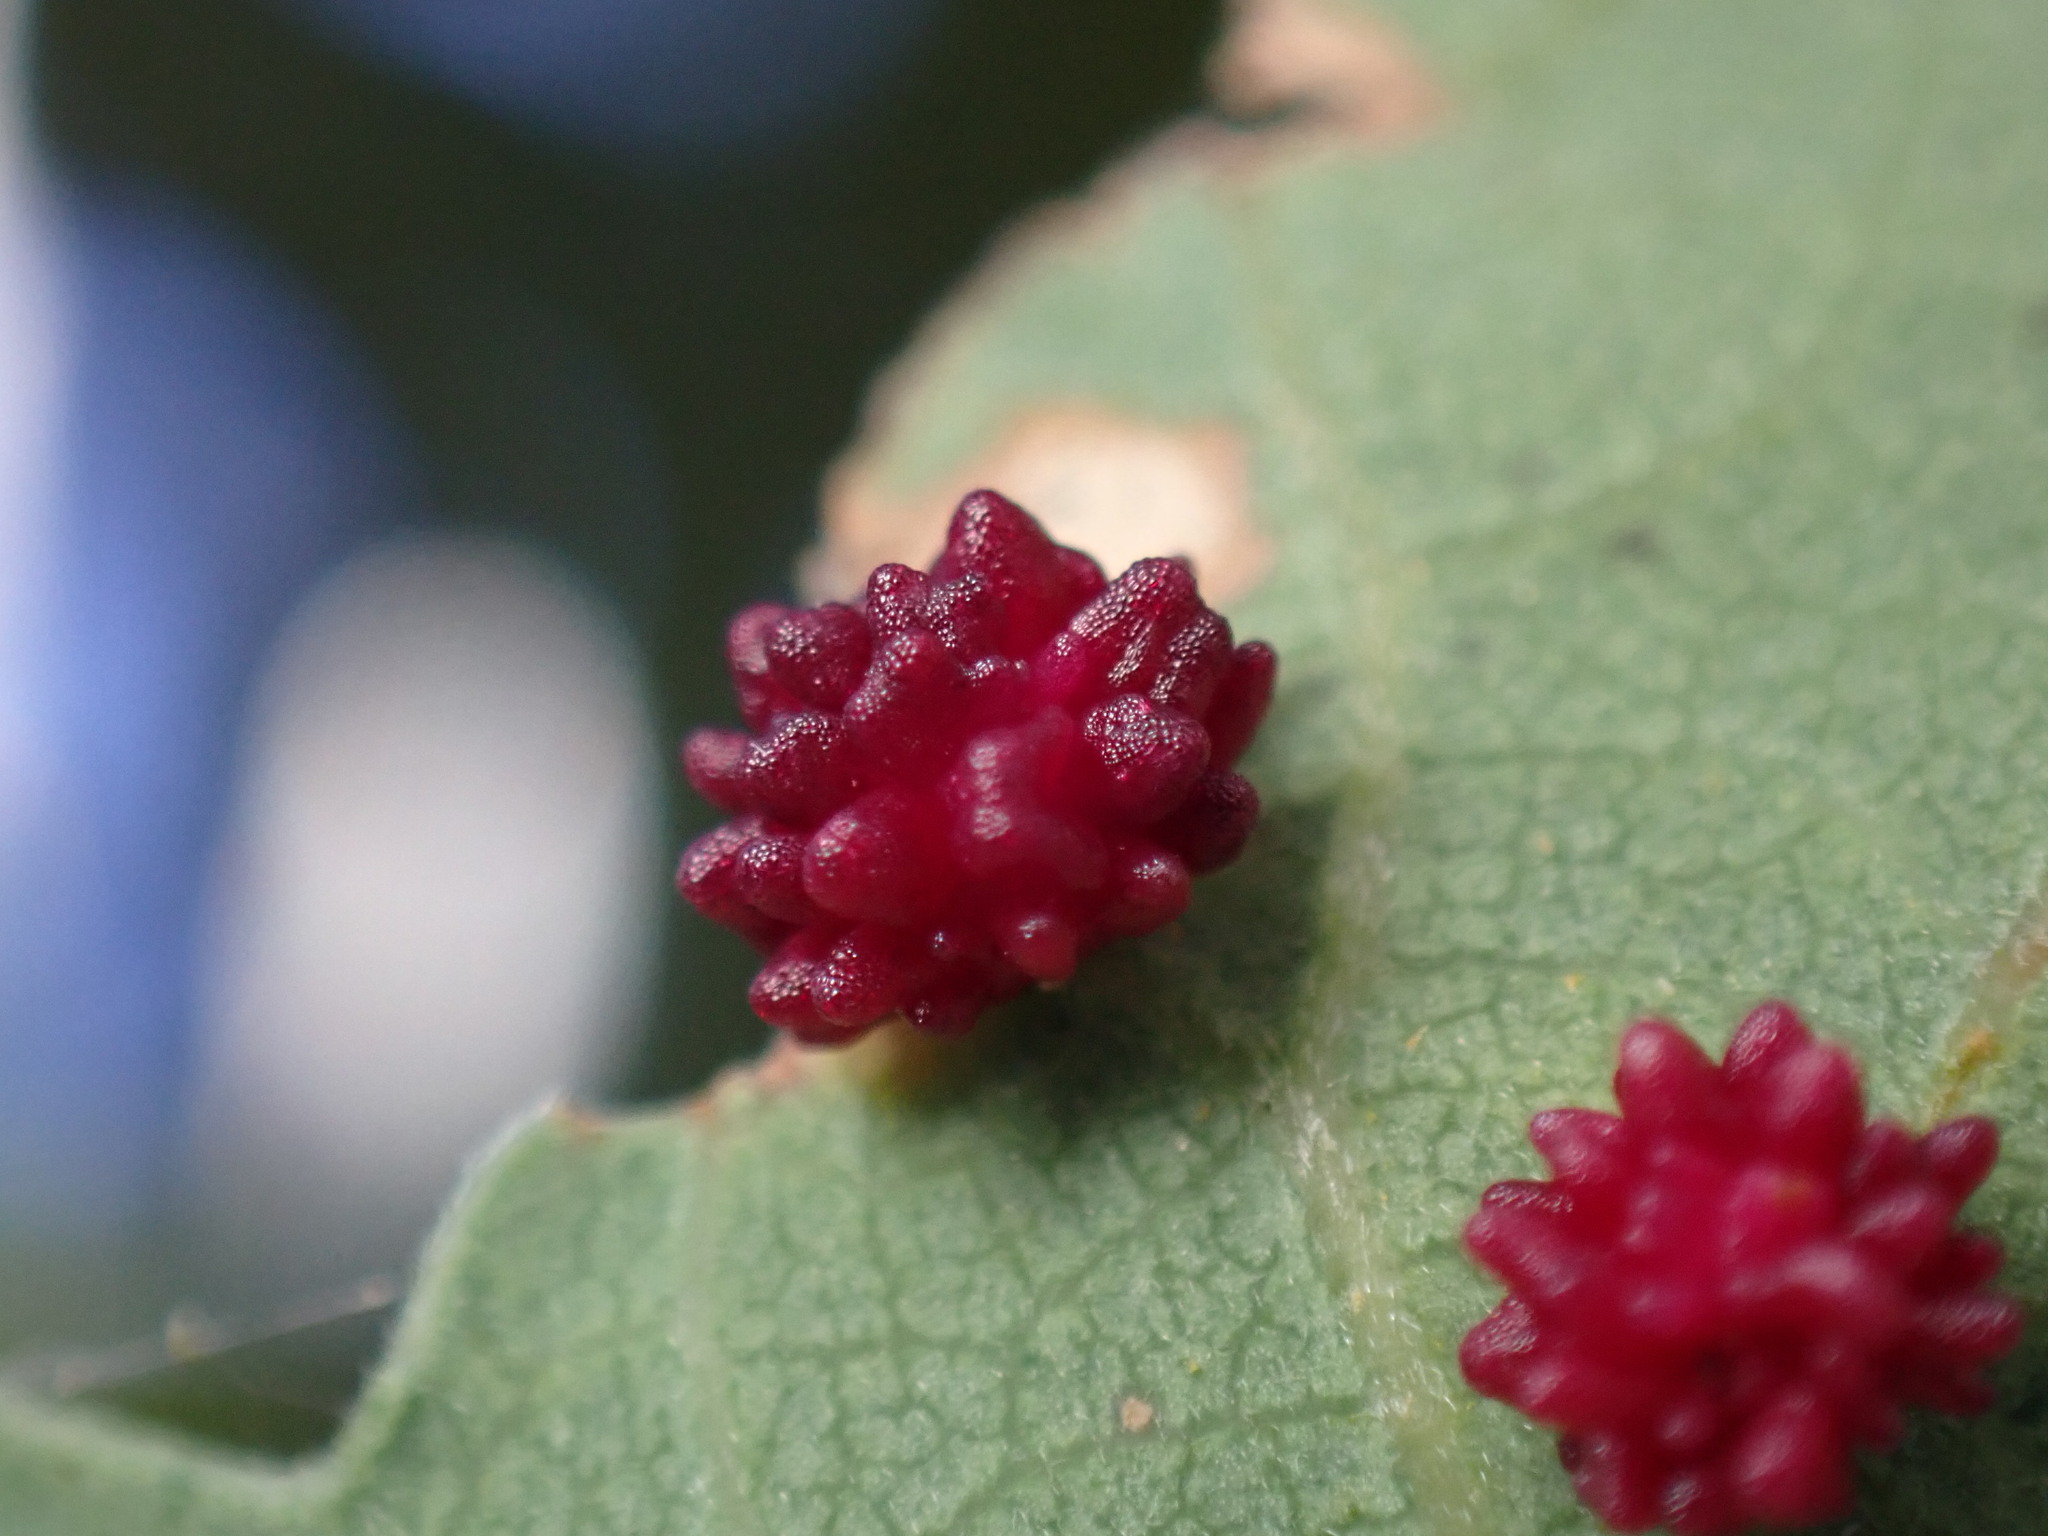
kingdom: Animalia
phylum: Arthropoda
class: Insecta
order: Hymenoptera
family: Cynipidae
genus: Cynips
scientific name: Cynips
